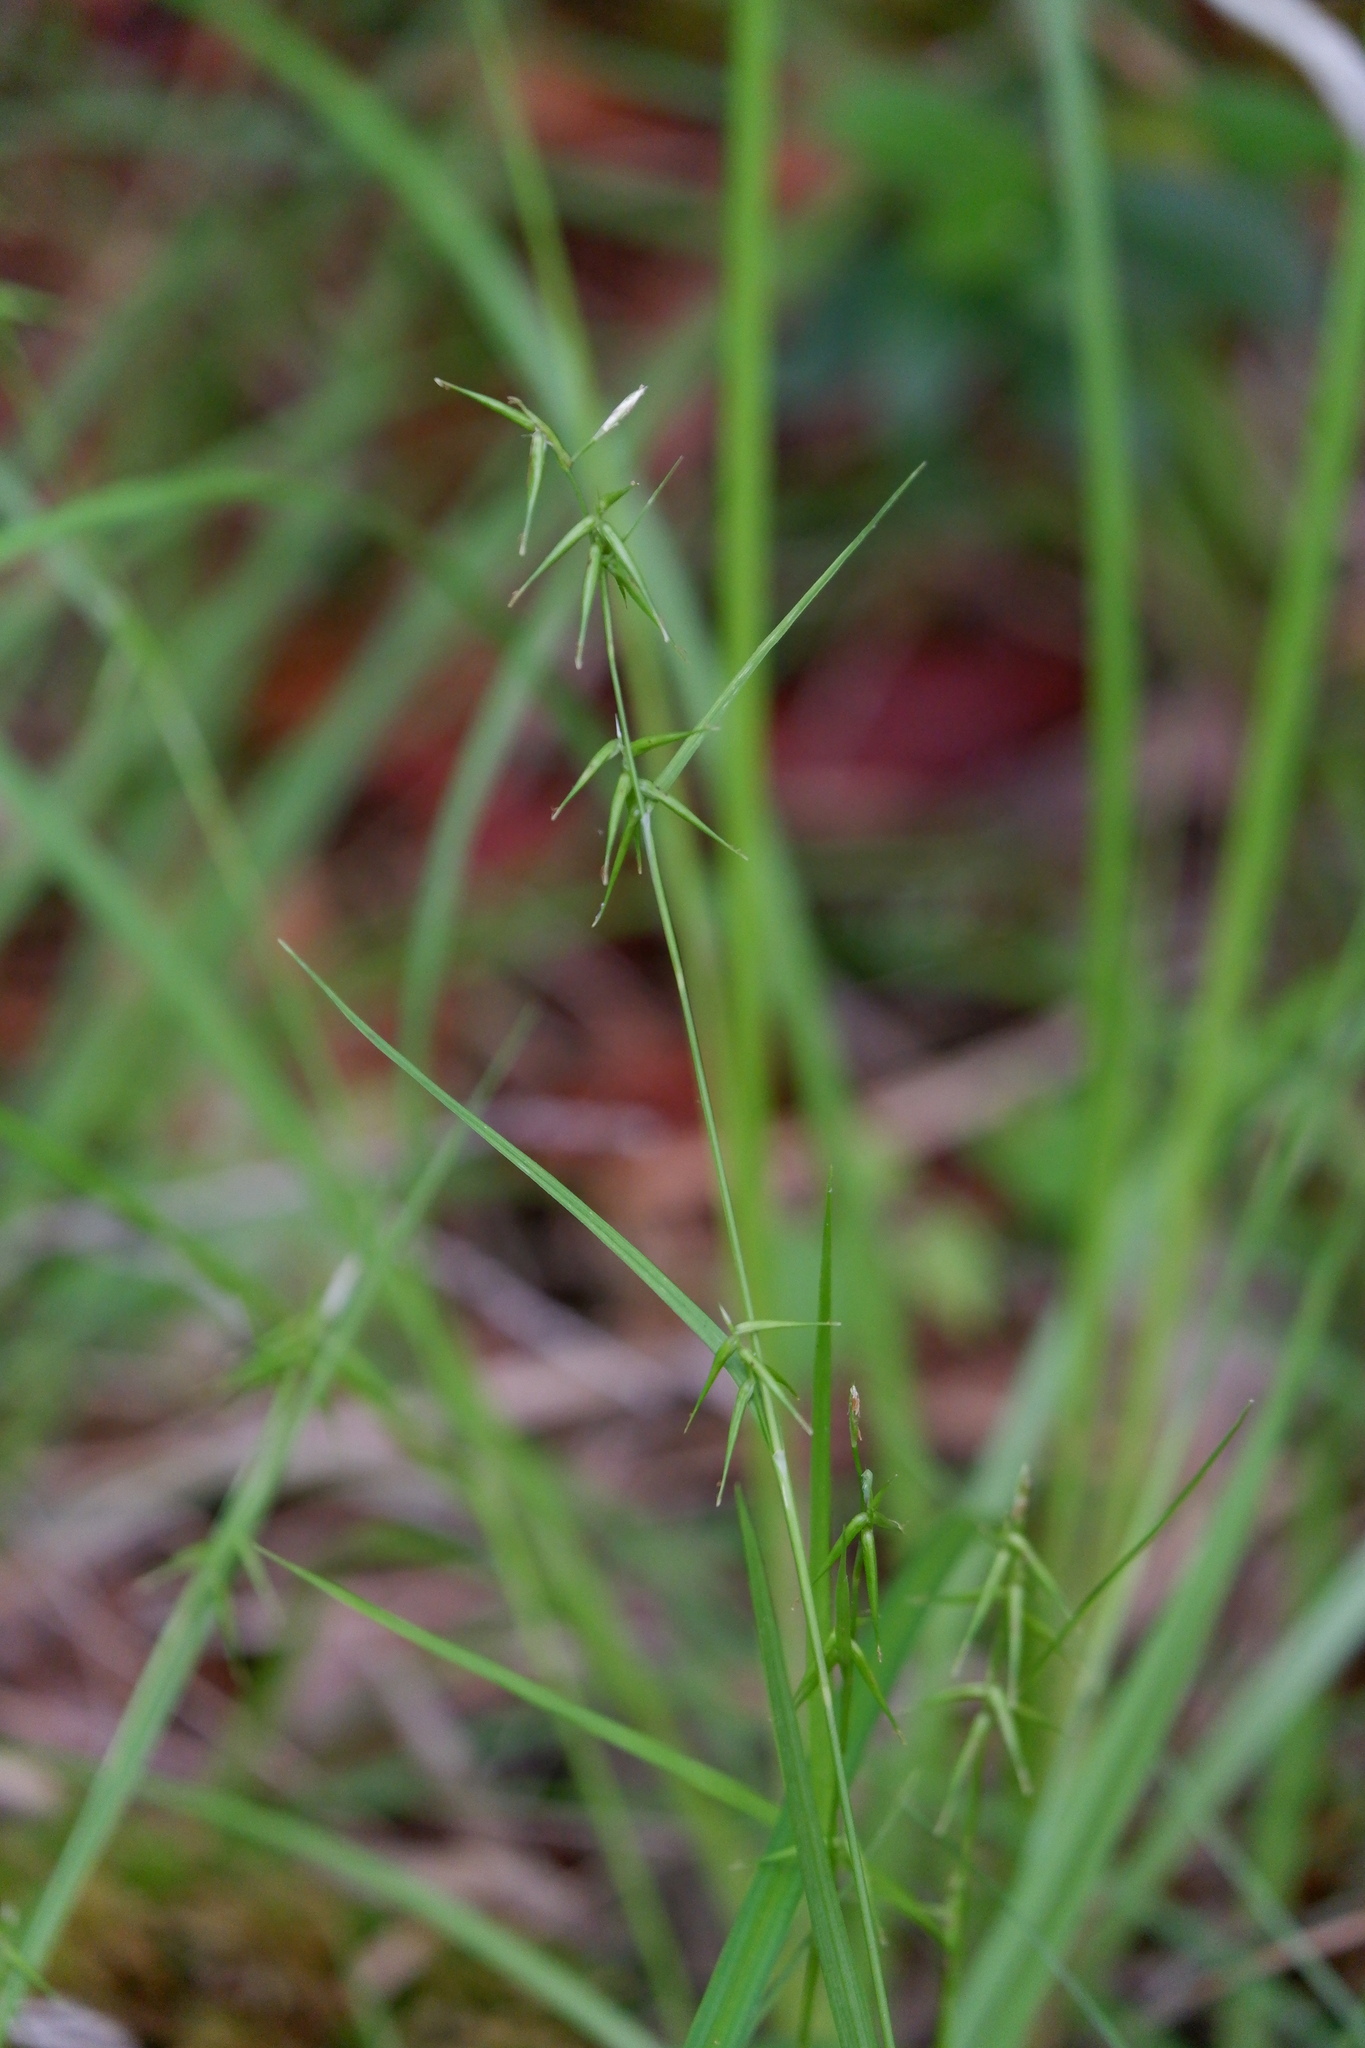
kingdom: Plantae
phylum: Tracheophyta
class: Liliopsida
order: Poales
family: Cyperaceae
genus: Carex
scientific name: Carex collinsii
